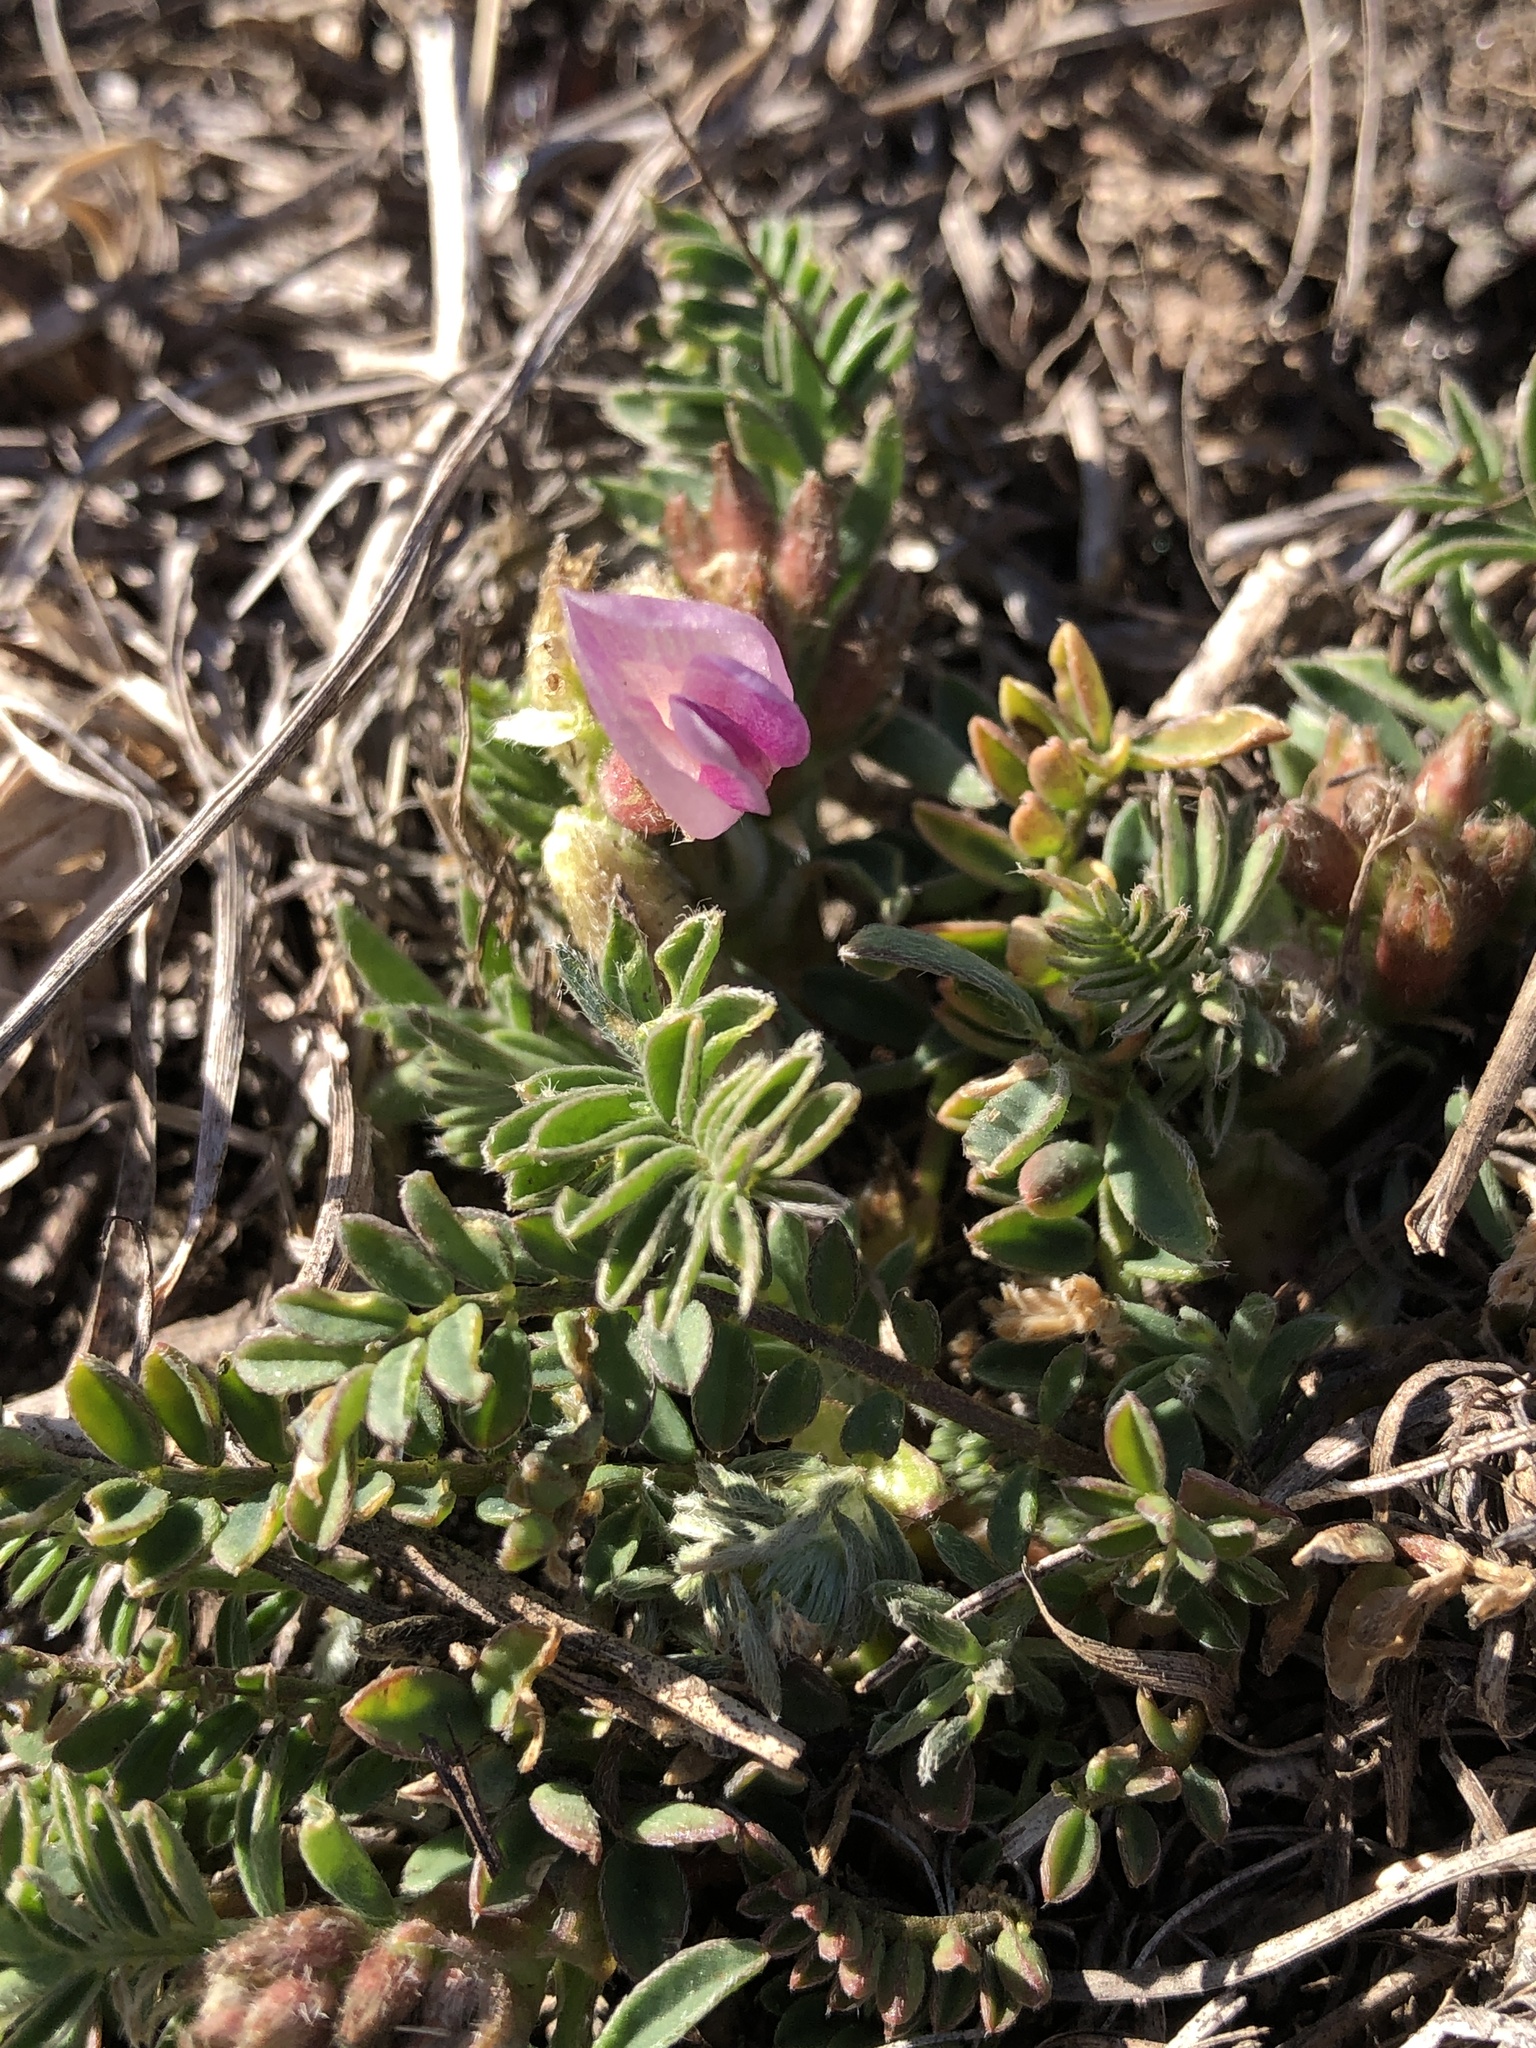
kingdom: Plantae
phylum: Tracheophyta
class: Magnoliopsida
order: Fabales
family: Fabaceae
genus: Astragalus
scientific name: Astragalus crassicarpus
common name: Ground-plum milk-vetch
